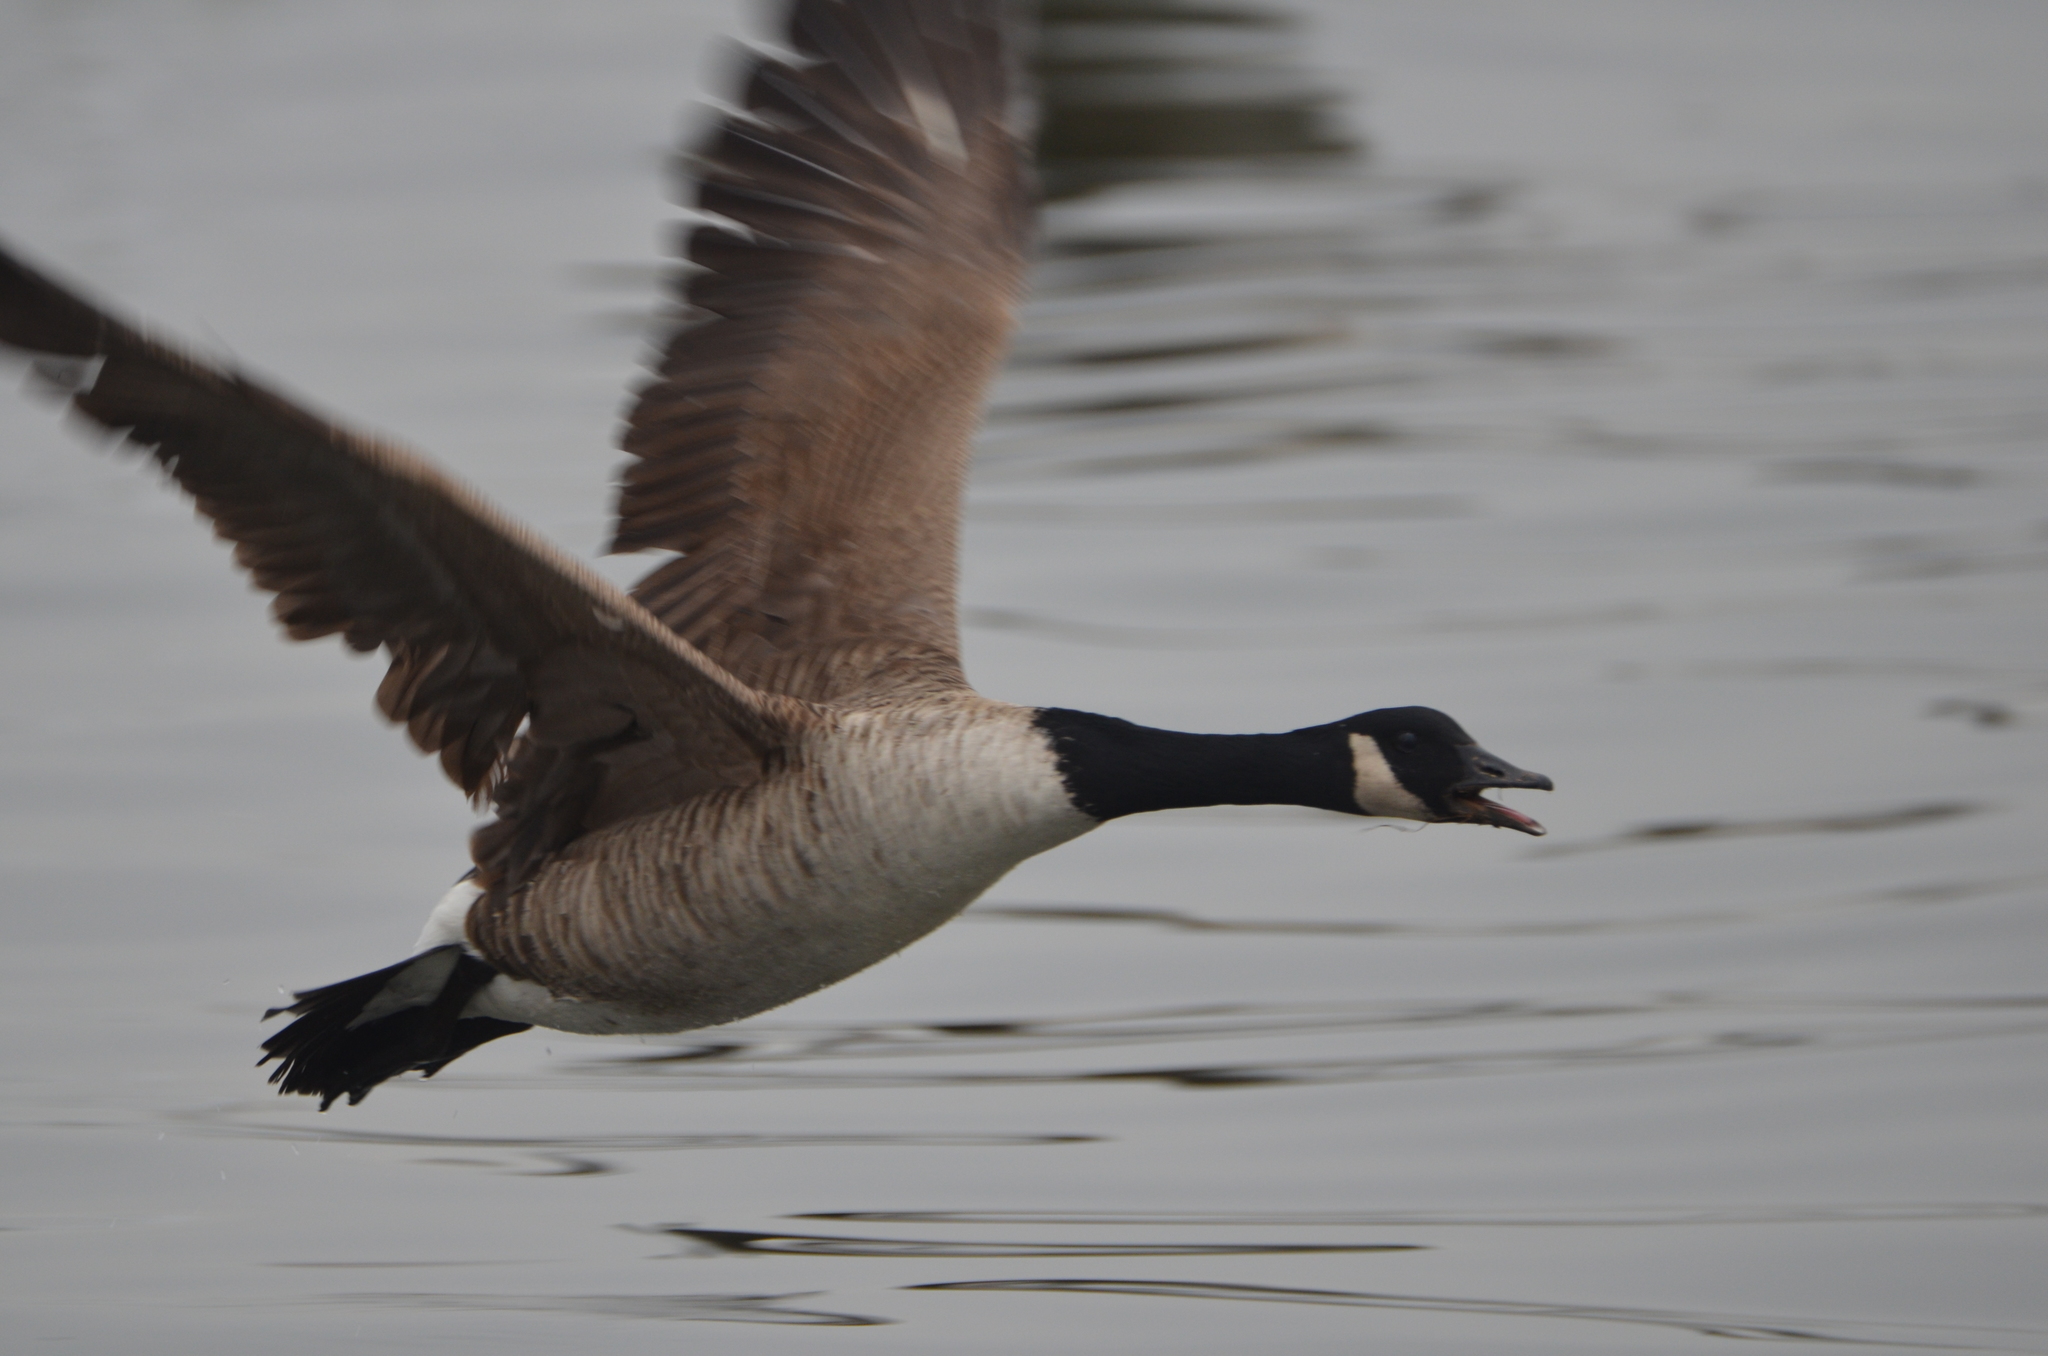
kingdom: Animalia
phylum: Chordata
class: Aves
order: Anseriformes
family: Anatidae
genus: Branta
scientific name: Branta canadensis
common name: Canada goose
